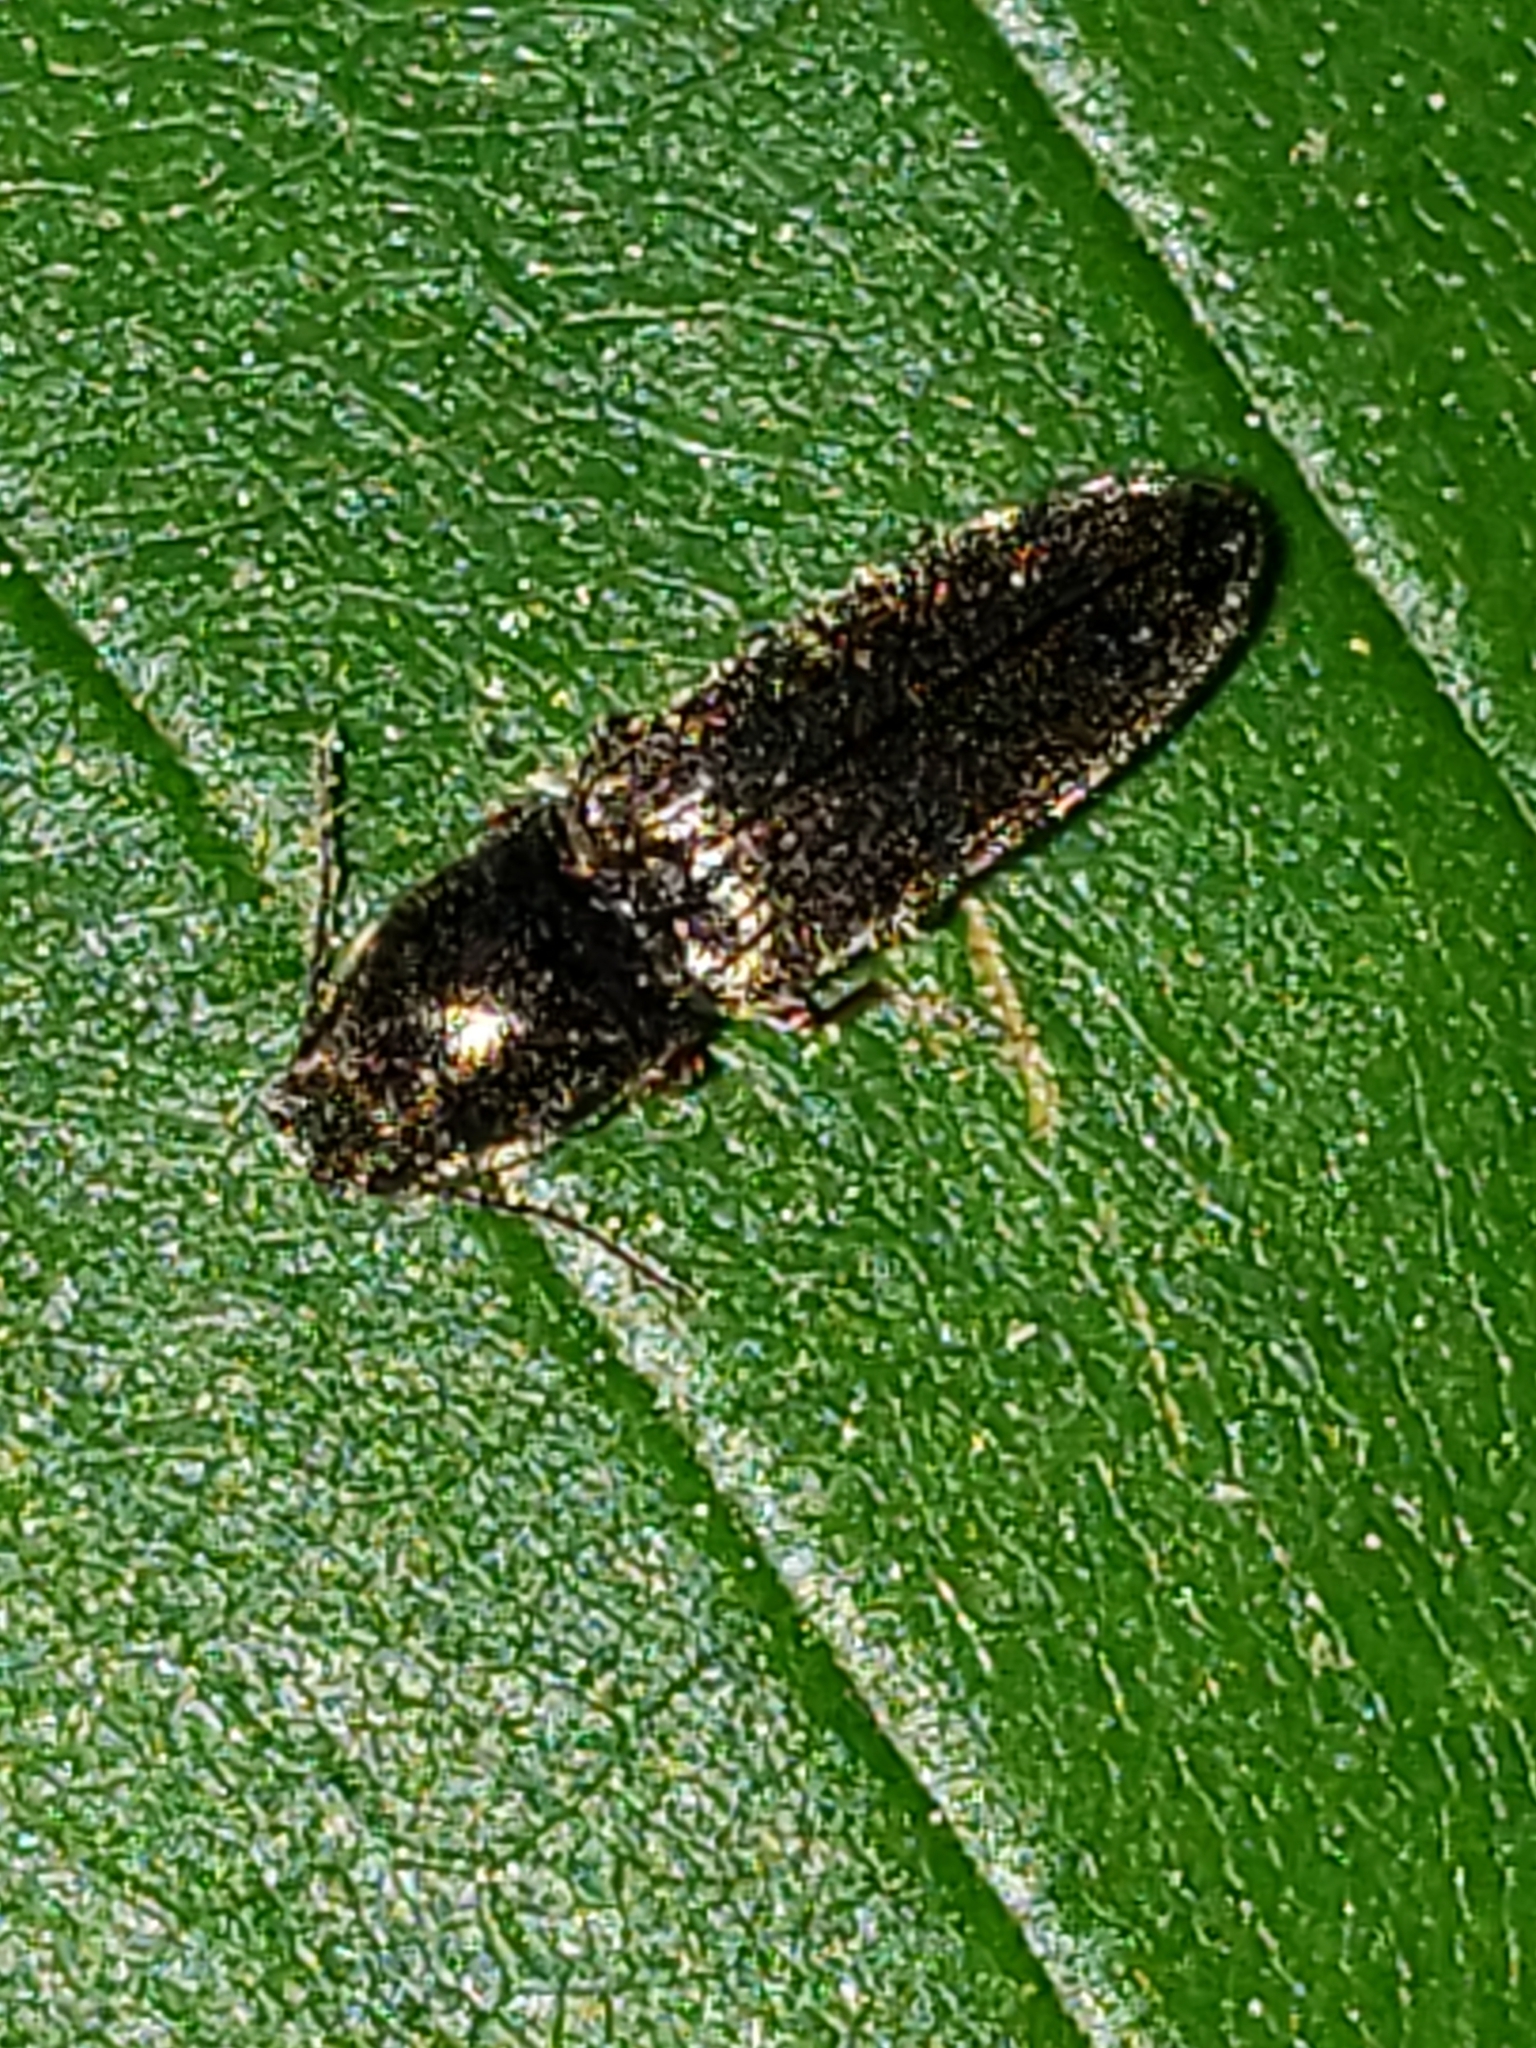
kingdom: Animalia
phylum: Arthropoda
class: Insecta
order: Coleoptera
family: Elateridae
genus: Limonius
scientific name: Limonius quercinus
